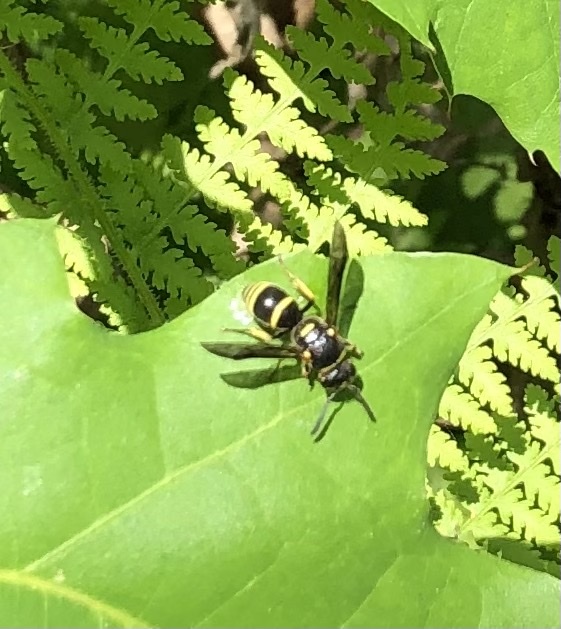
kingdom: Animalia
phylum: Arthropoda
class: Insecta
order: Hymenoptera
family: Eumenidae
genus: Euodynerus
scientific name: Euodynerus foraminatus
